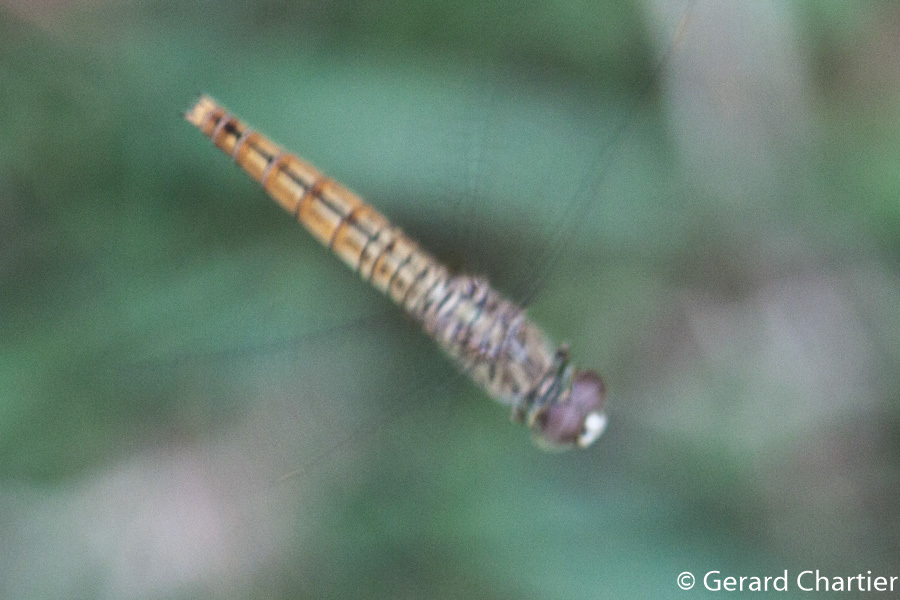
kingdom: Animalia
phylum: Arthropoda
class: Insecta
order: Odonata
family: Libellulidae
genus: Brachythemis
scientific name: Brachythemis contaminata
